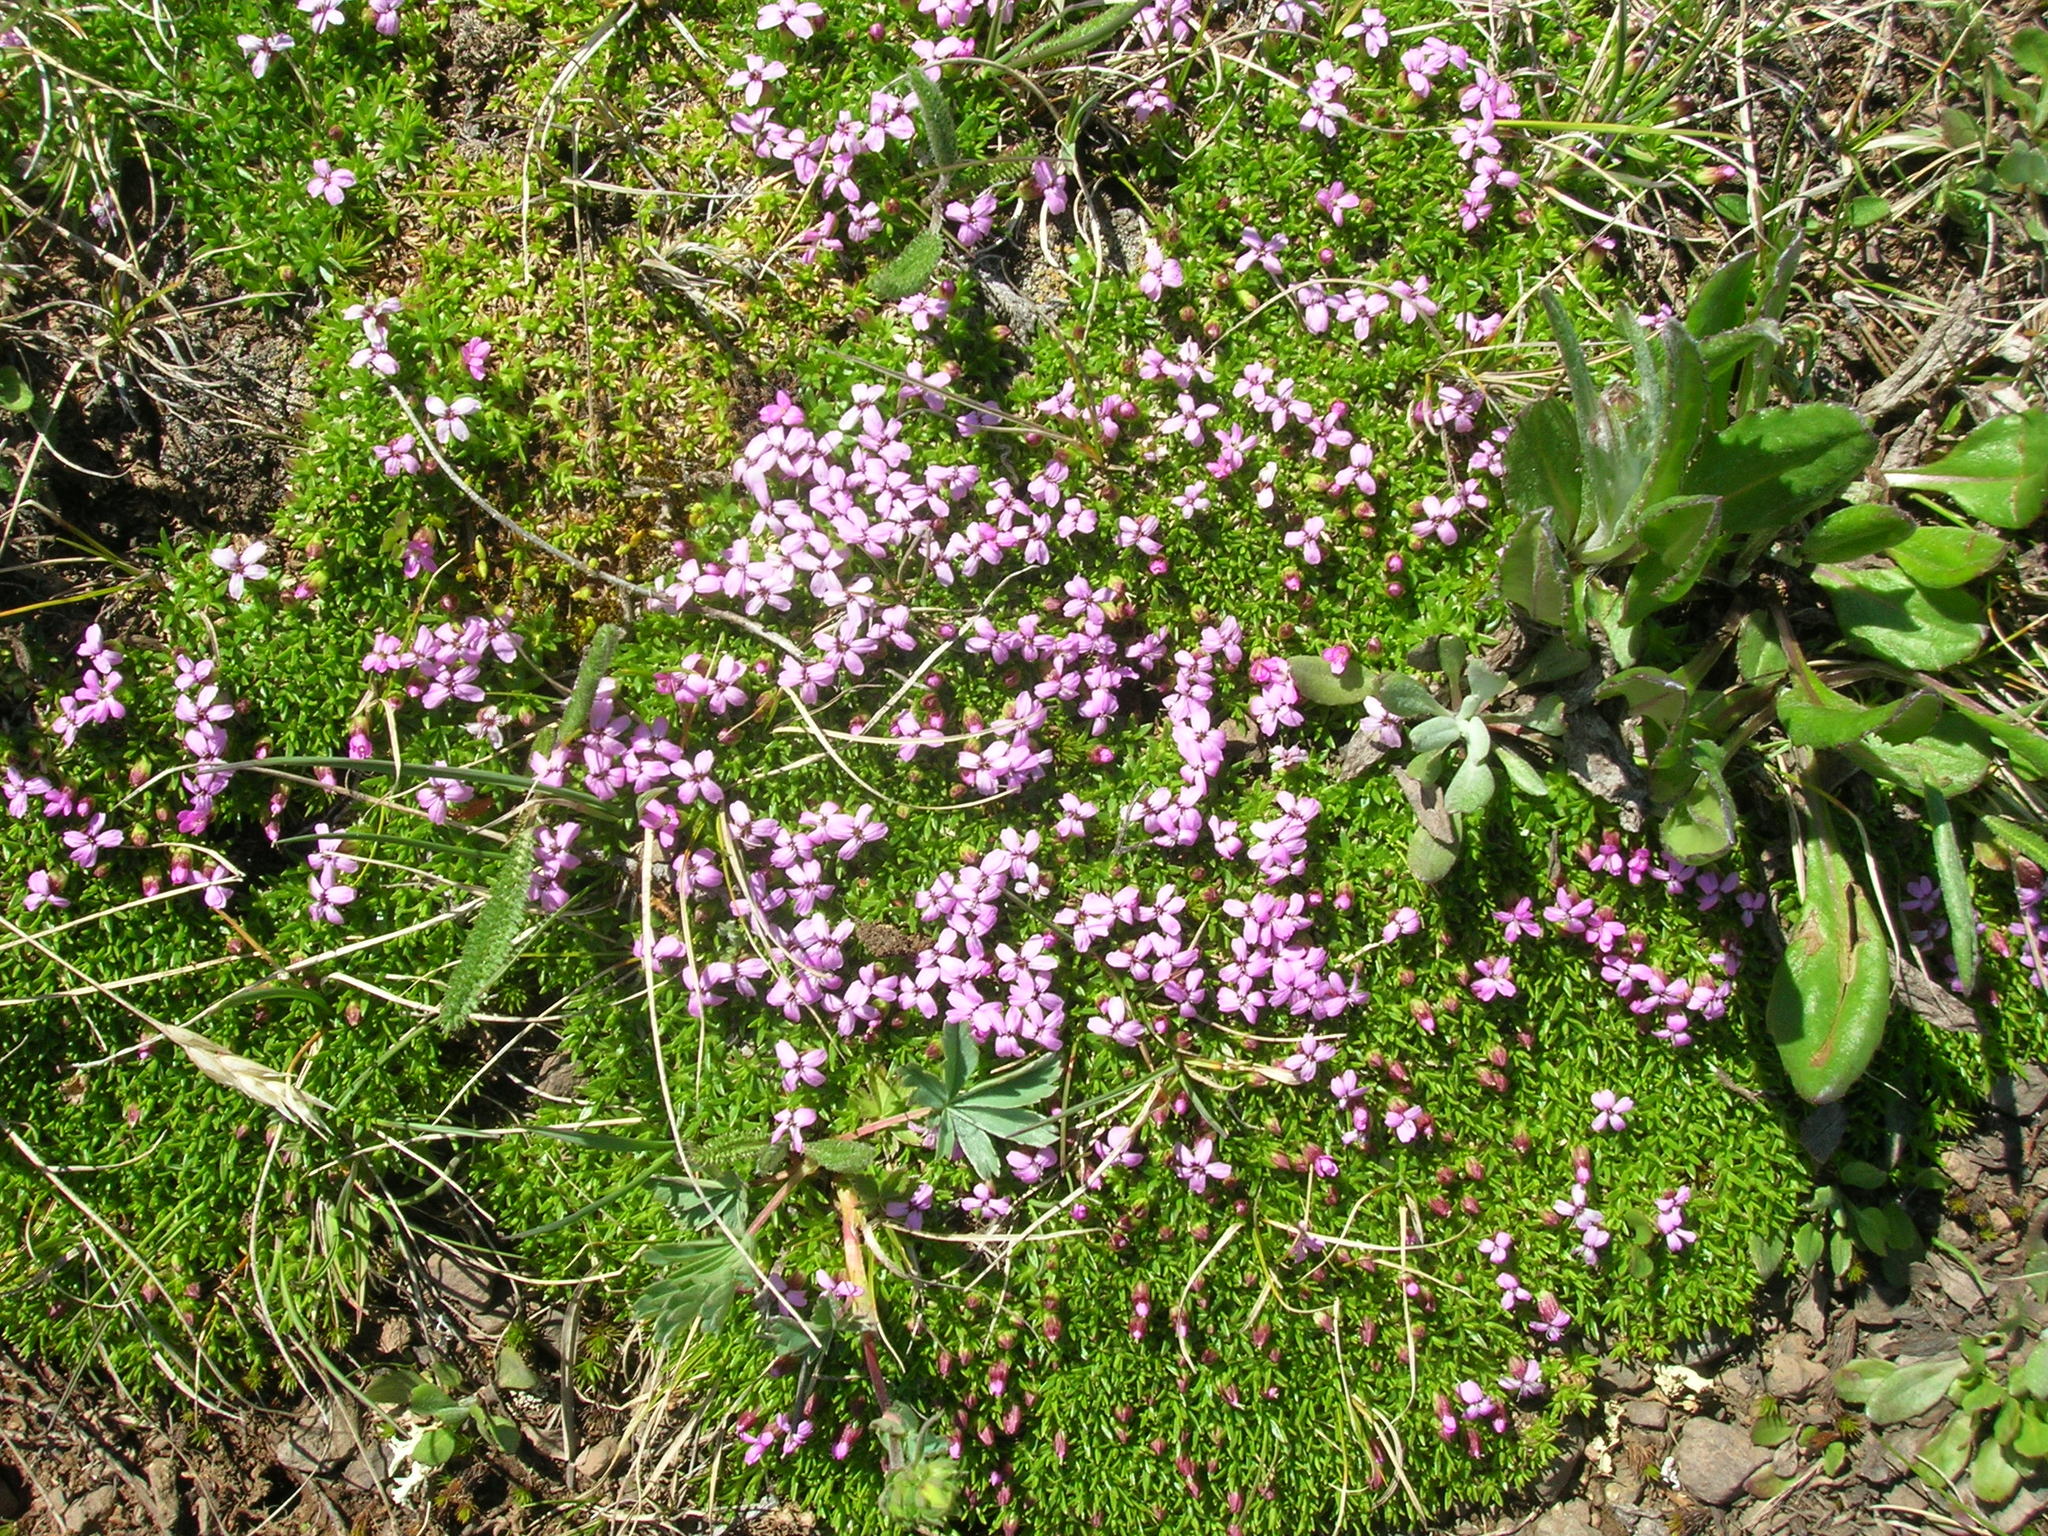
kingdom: Plantae
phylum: Tracheophyta
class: Magnoliopsida
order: Caryophyllales
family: Caryophyllaceae
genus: Silene
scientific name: Silene acaulis
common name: Moss campion
